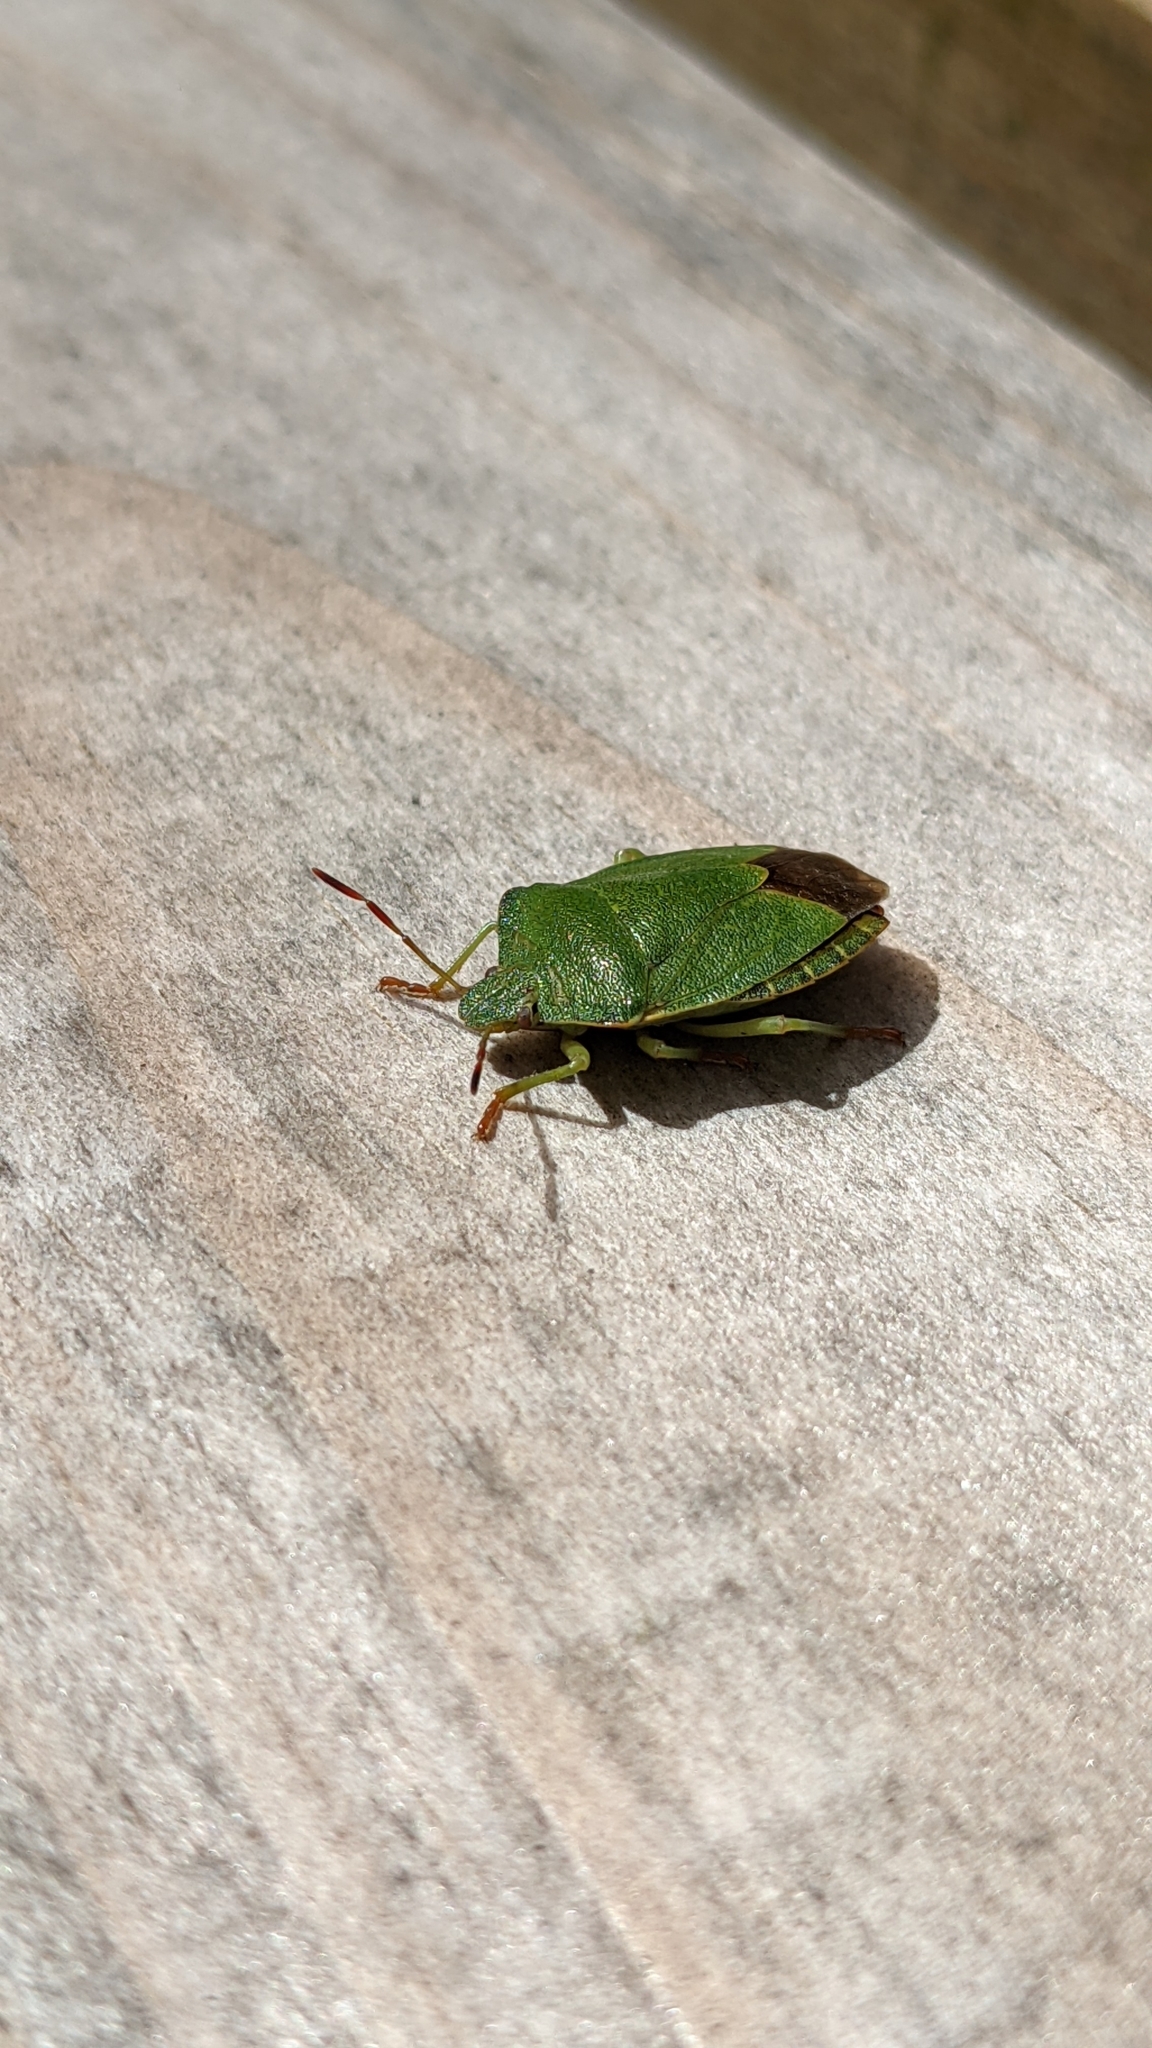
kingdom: Animalia
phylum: Arthropoda
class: Insecta
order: Hemiptera
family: Pentatomidae
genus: Palomena
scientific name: Palomena prasina
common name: Green shieldbug
